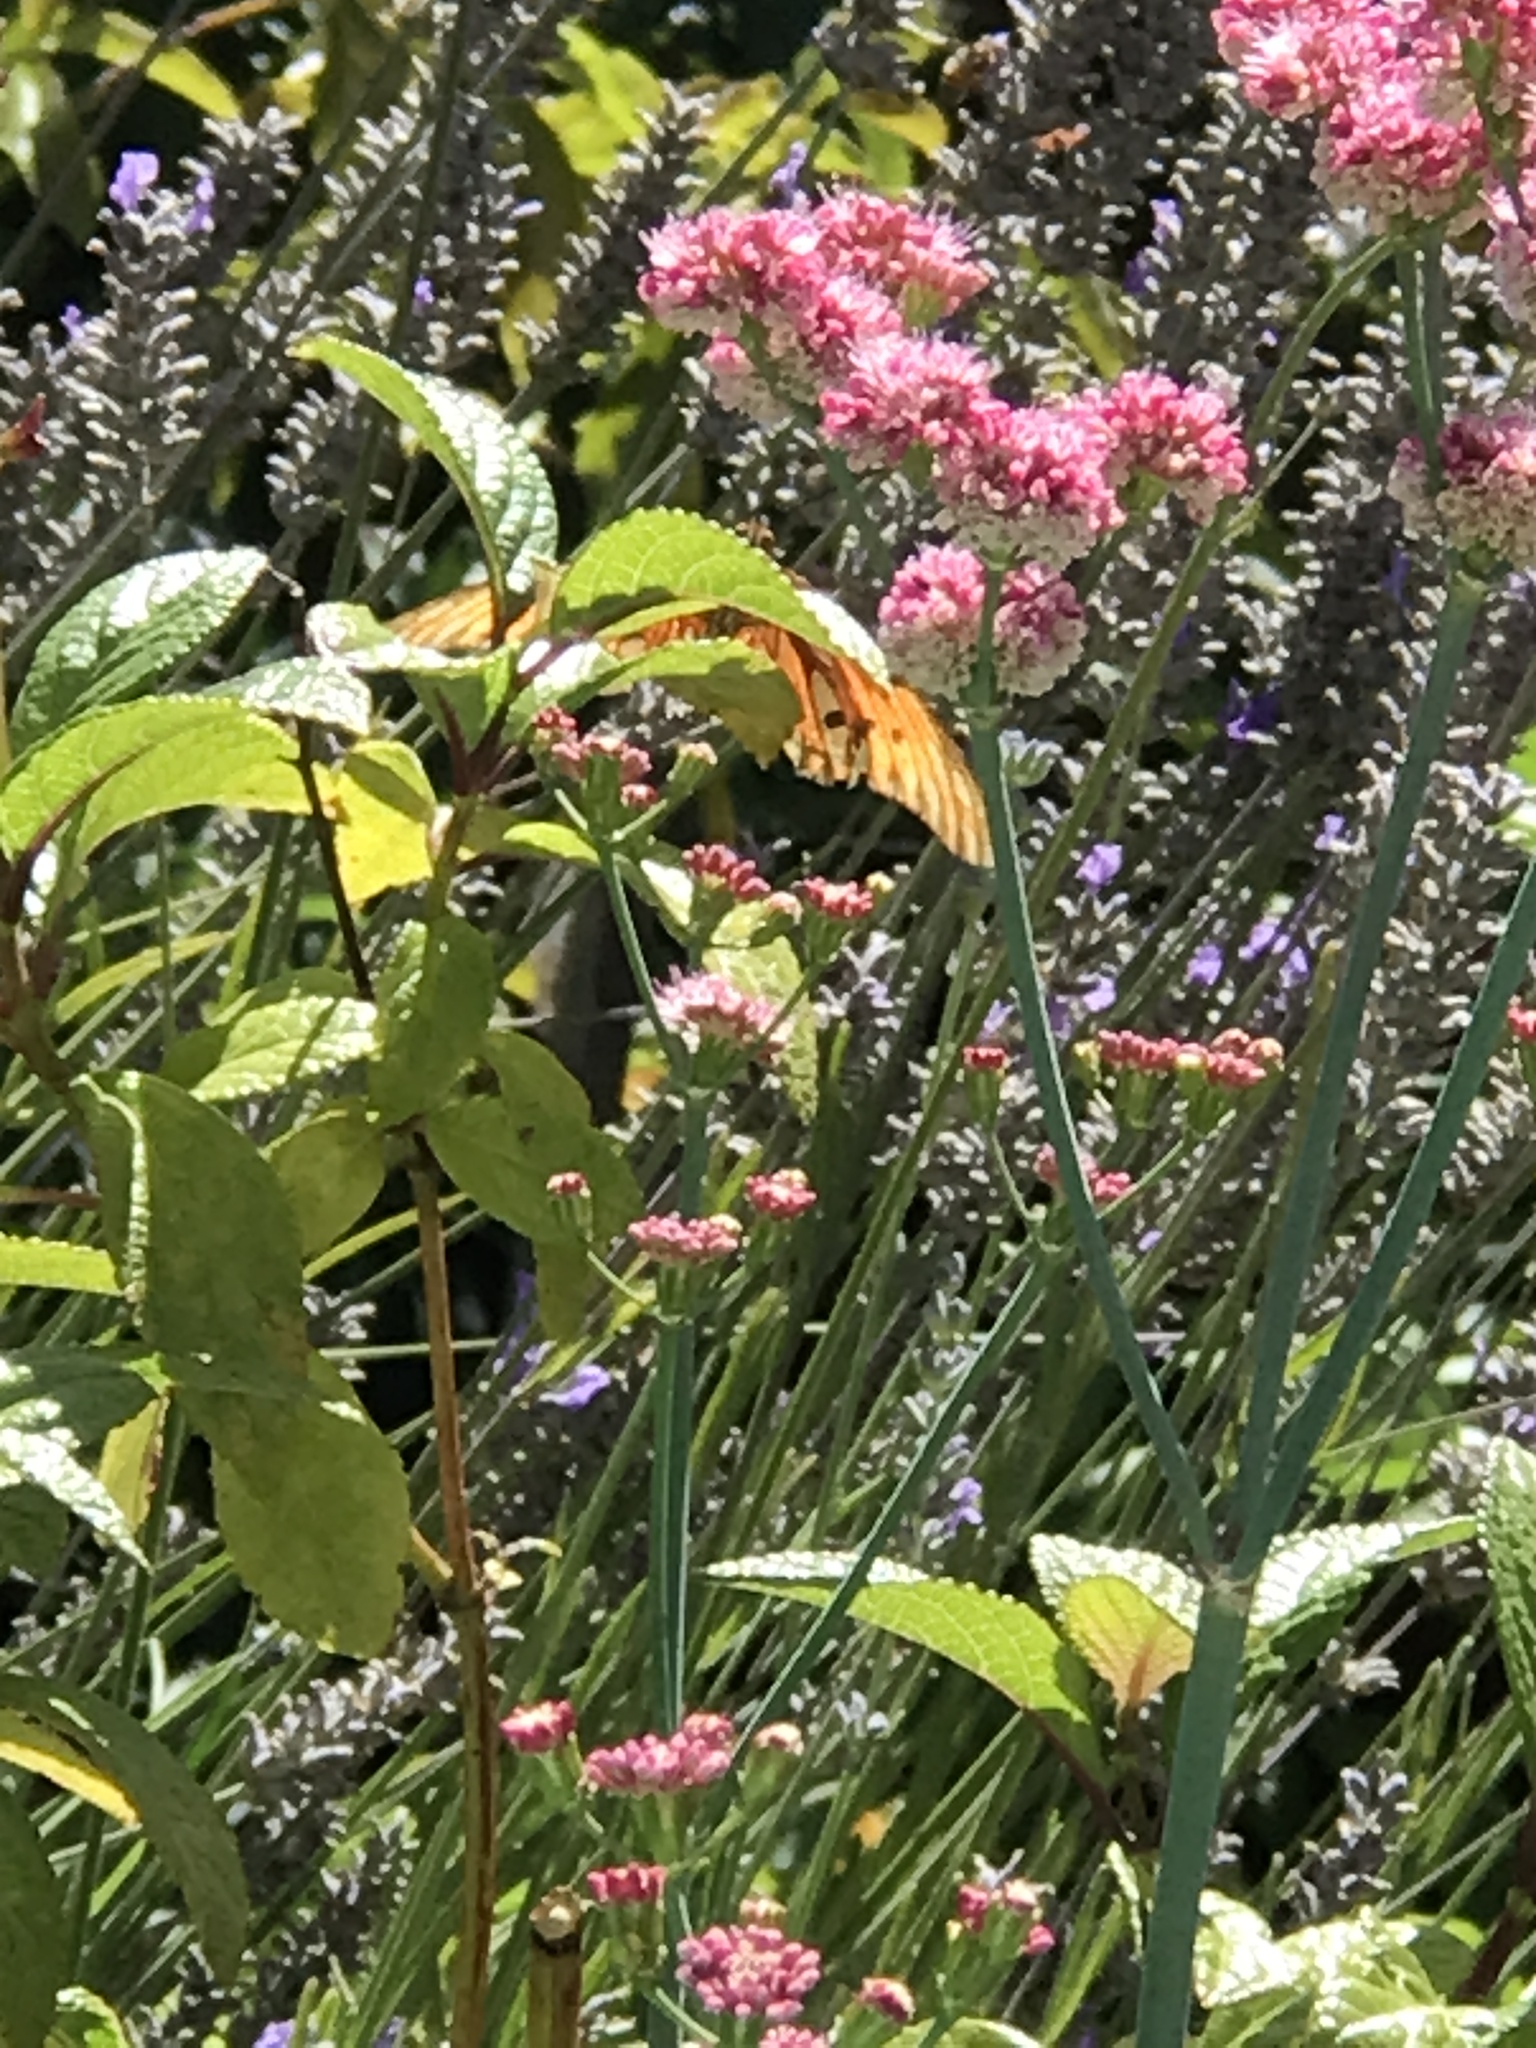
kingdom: Animalia
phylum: Arthropoda
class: Insecta
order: Lepidoptera
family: Nymphalidae
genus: Dione
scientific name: Dione vanillae
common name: Gulf fritillary
